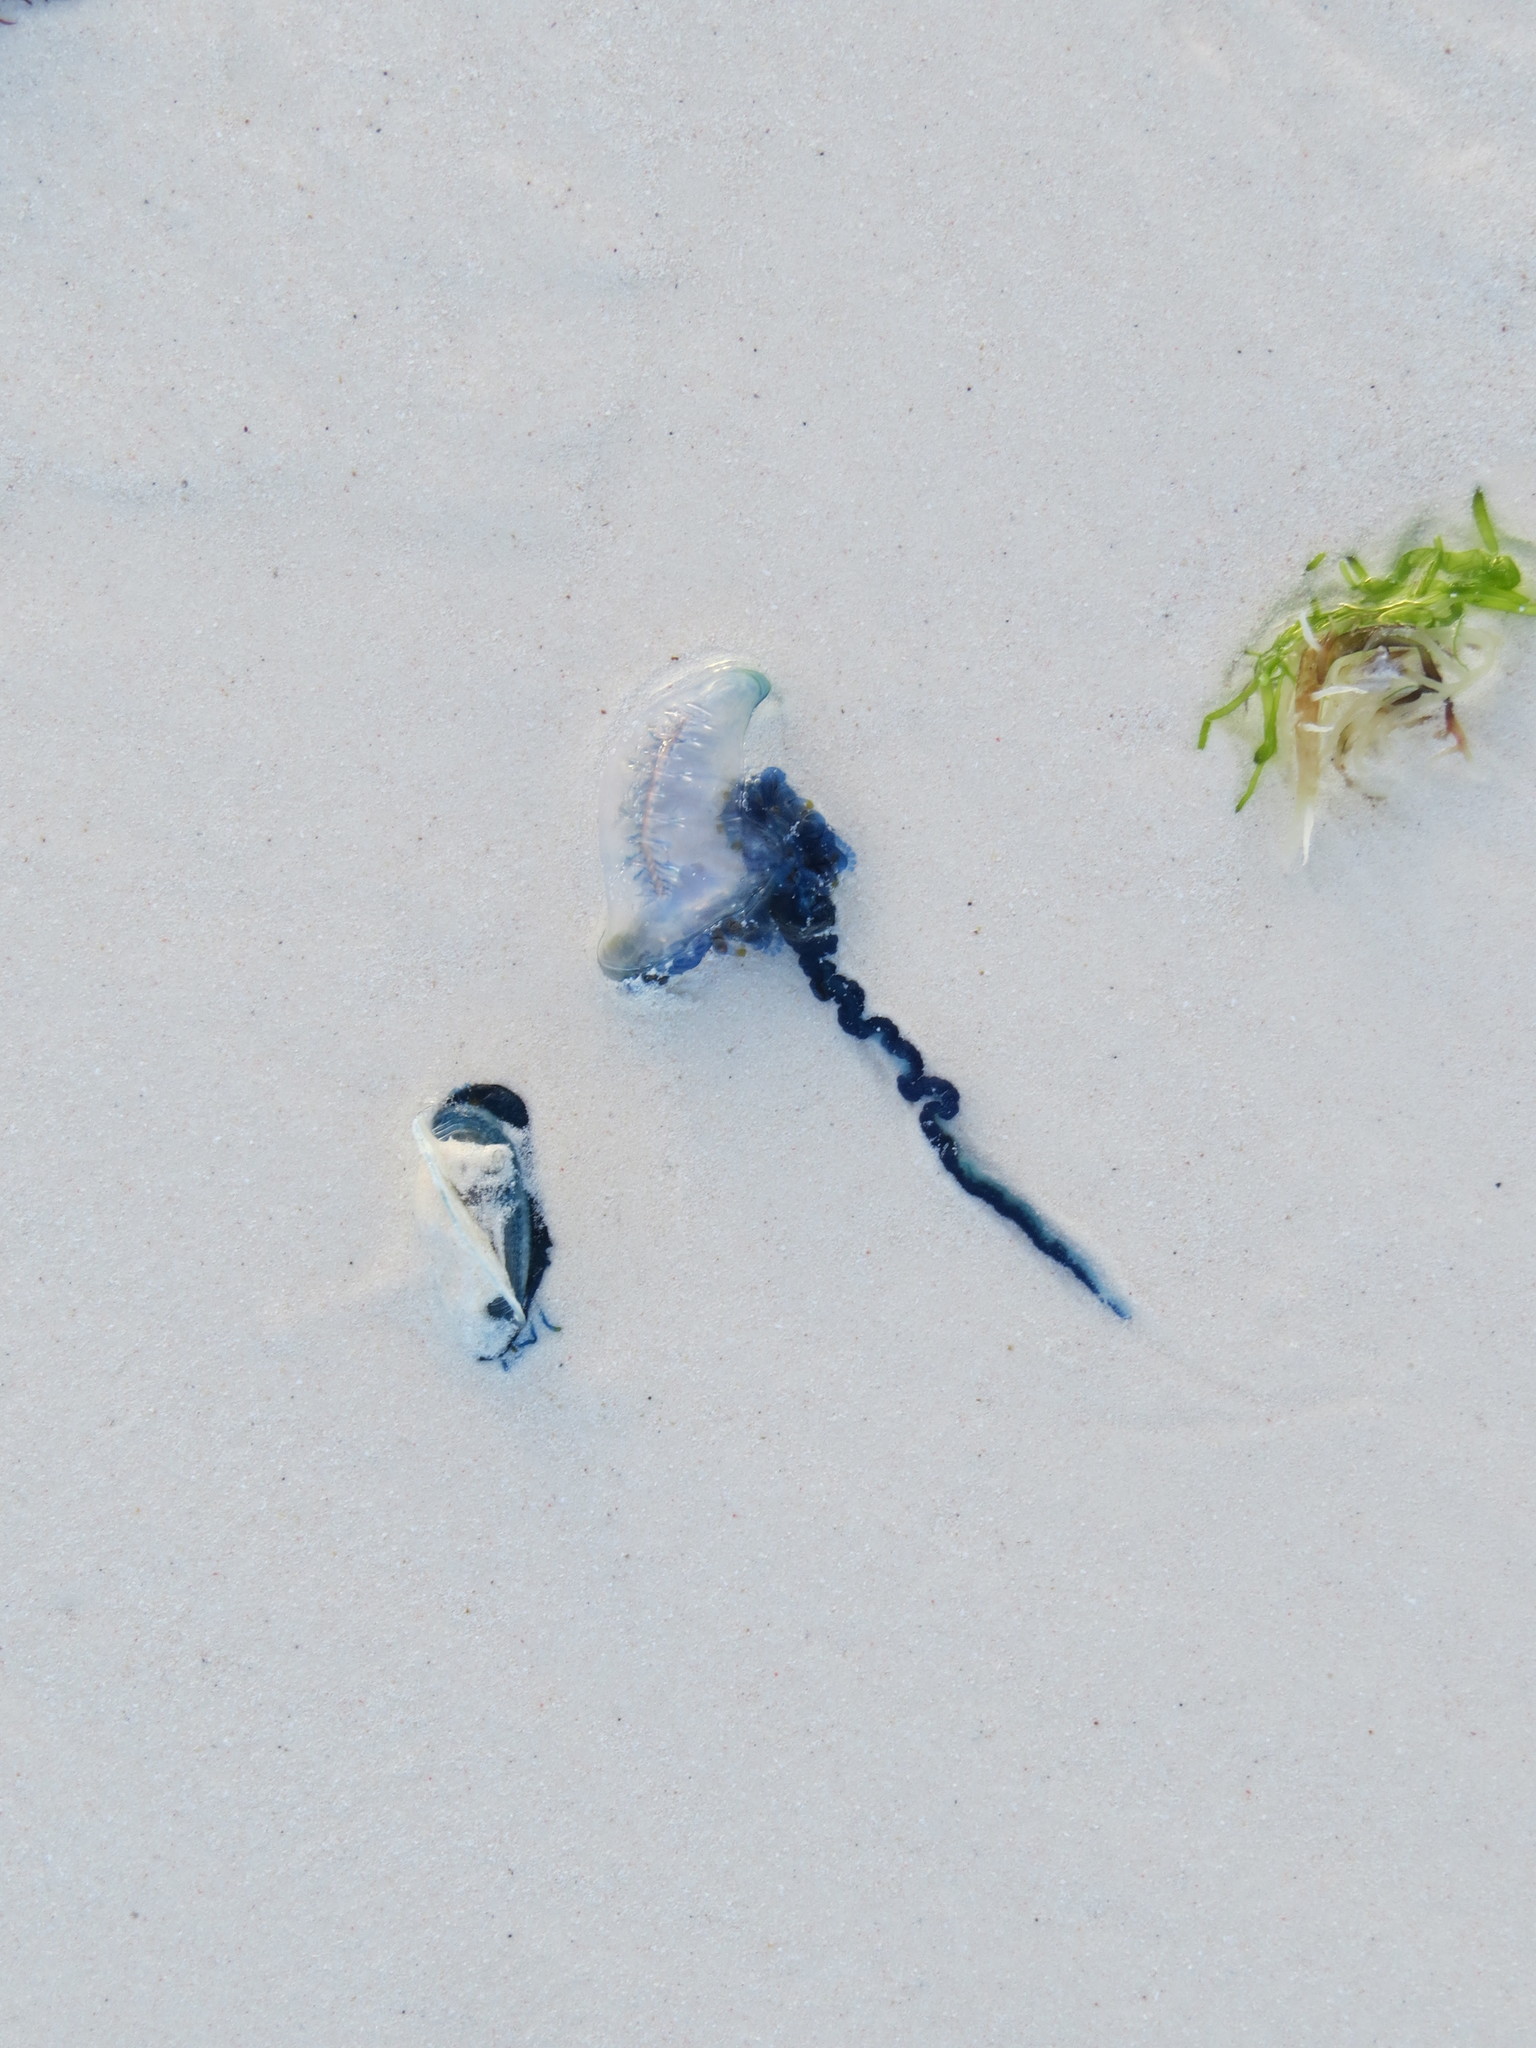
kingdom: Animalia
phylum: Cnidaria
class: Hydrozoa
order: Siphonophorae
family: Physaliidae
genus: Physalia
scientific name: Physalia physalis
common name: Portuguese man-of-war
